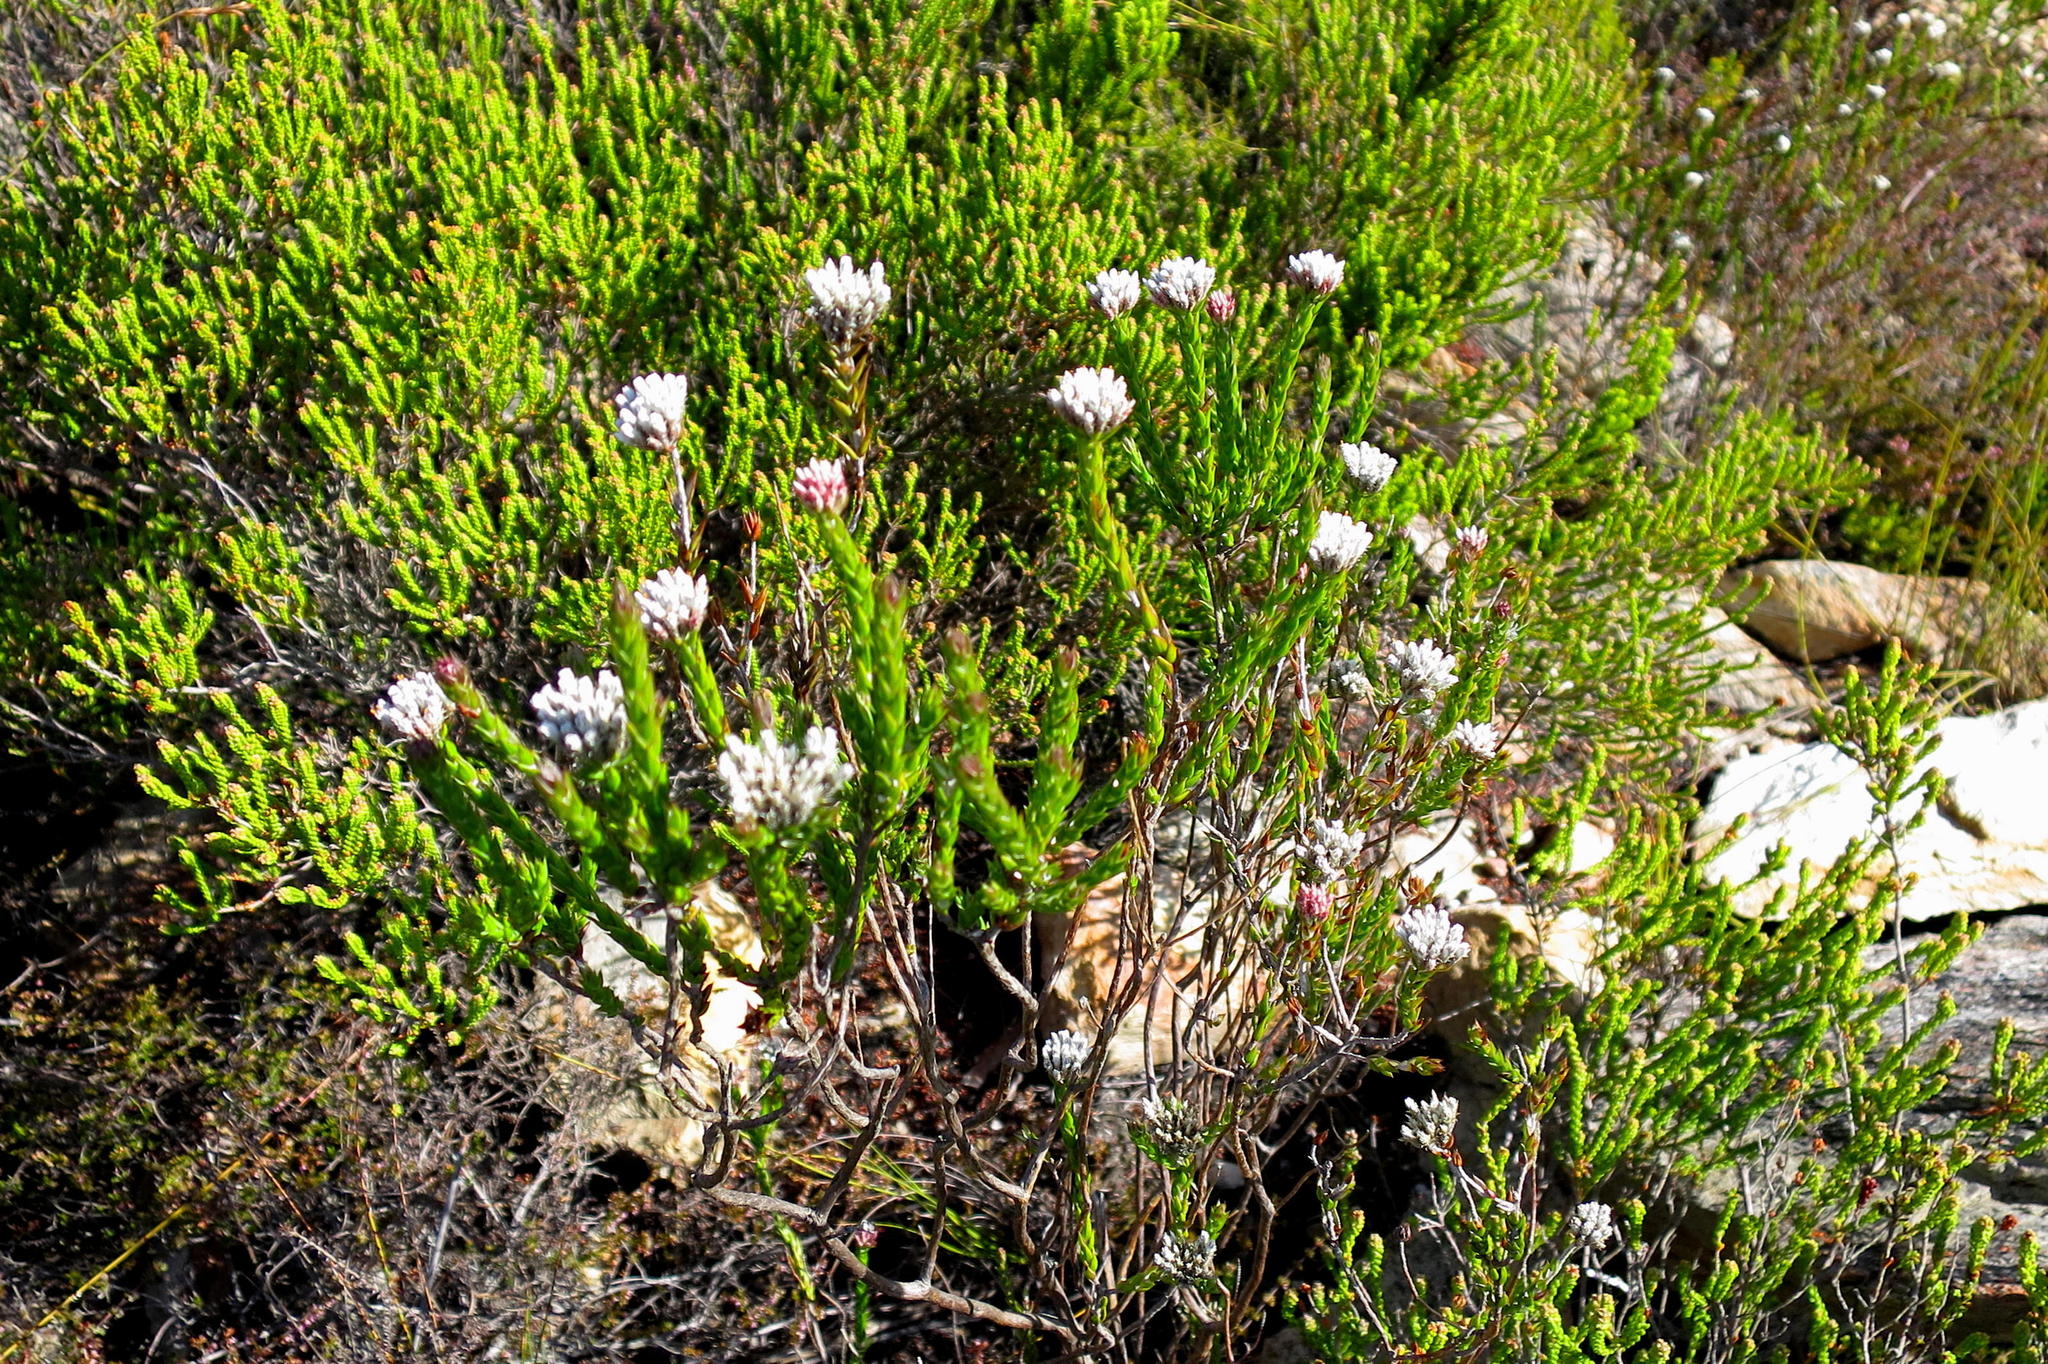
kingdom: Plantae
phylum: Tracheophyta
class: Magnoliopsida
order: Asterales
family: Asteraceae
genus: Metalasia
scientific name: Metalasia pulcherrima
